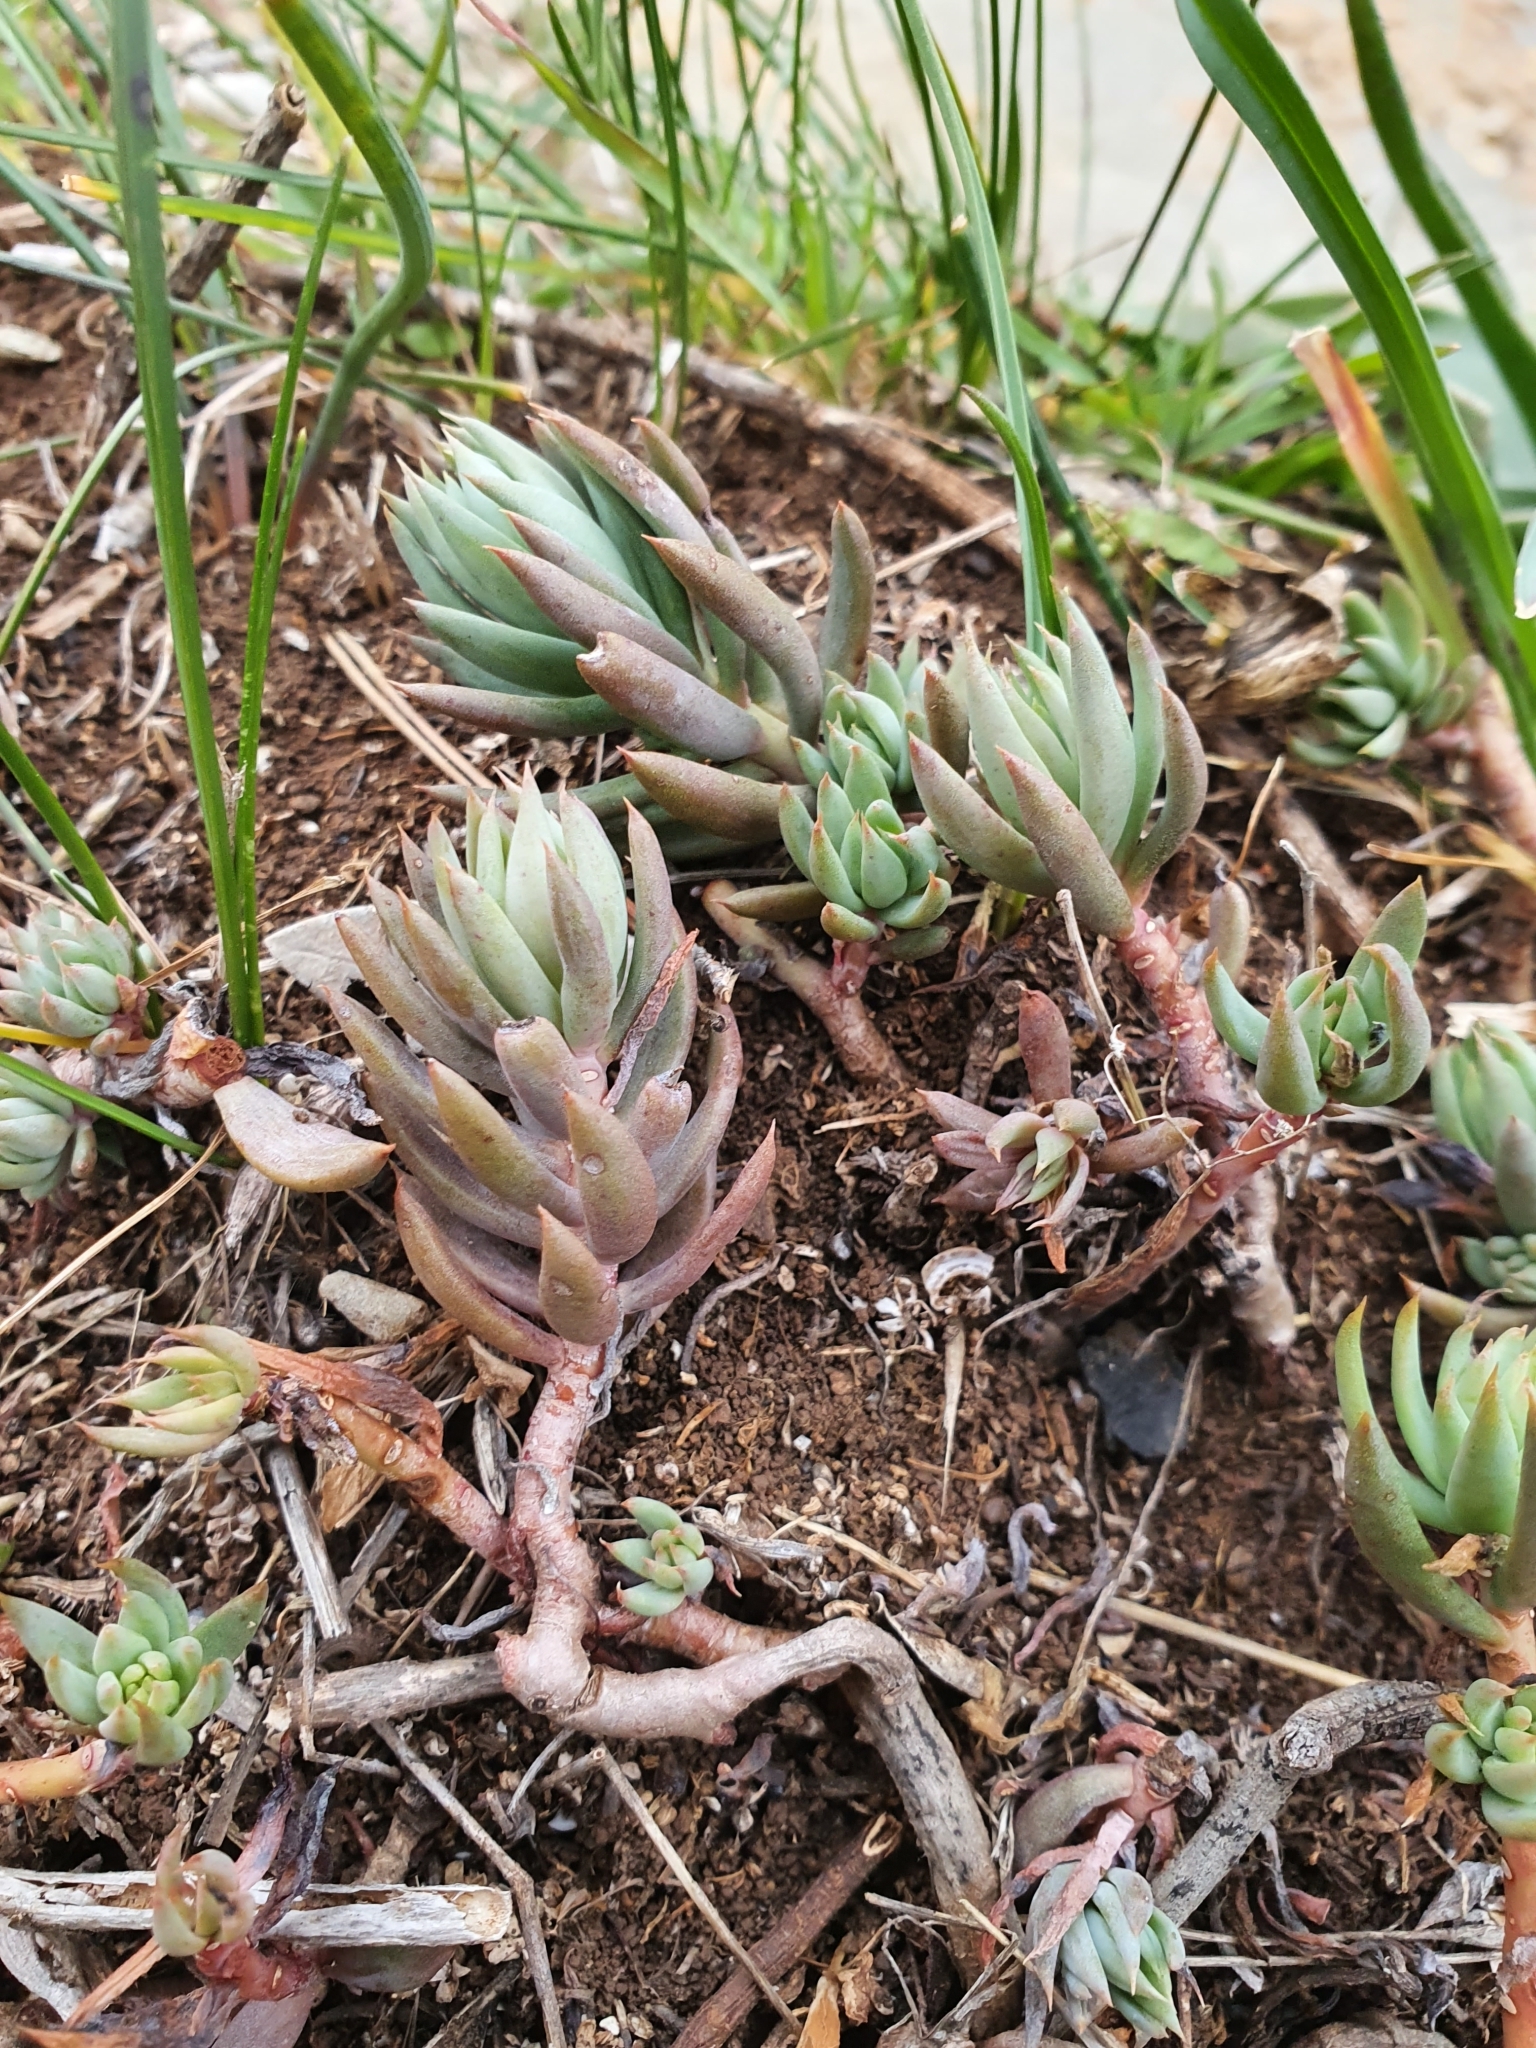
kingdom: Plantae
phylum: Tracheophyta
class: Magnoliopsida
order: Saxifragales
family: Crassulaceae
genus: Petrosedum
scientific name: Petrosedum sediforme
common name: Pale stonecrop
